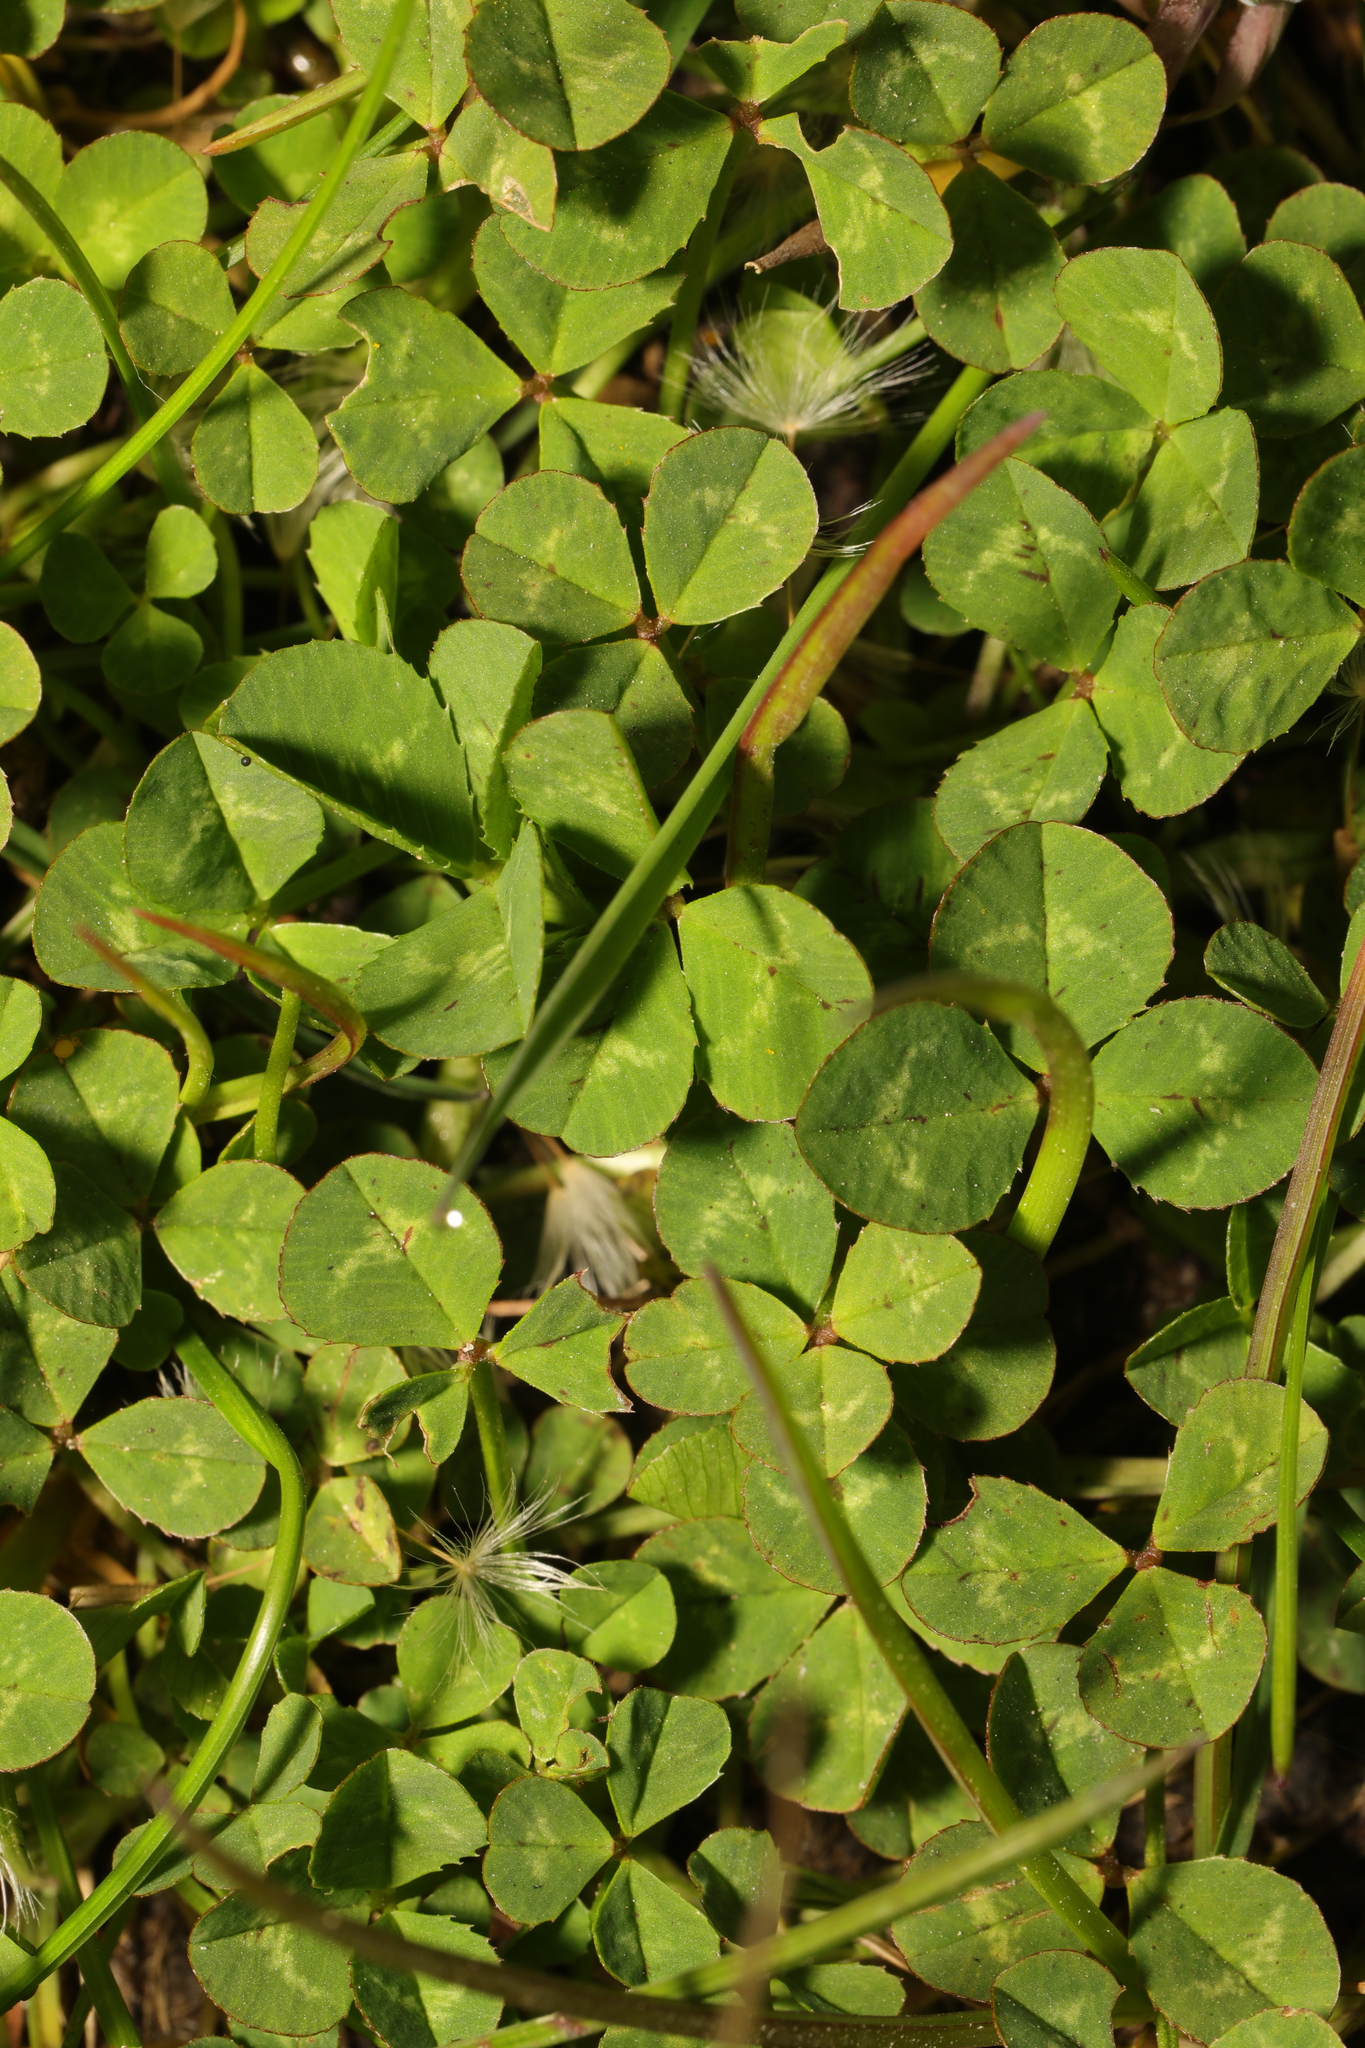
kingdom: Plantae
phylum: Tracheophyta
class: Magnoliopsida
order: Fabales
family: Fabaceae
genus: Trifolium
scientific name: Trifolium repens
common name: White clover
